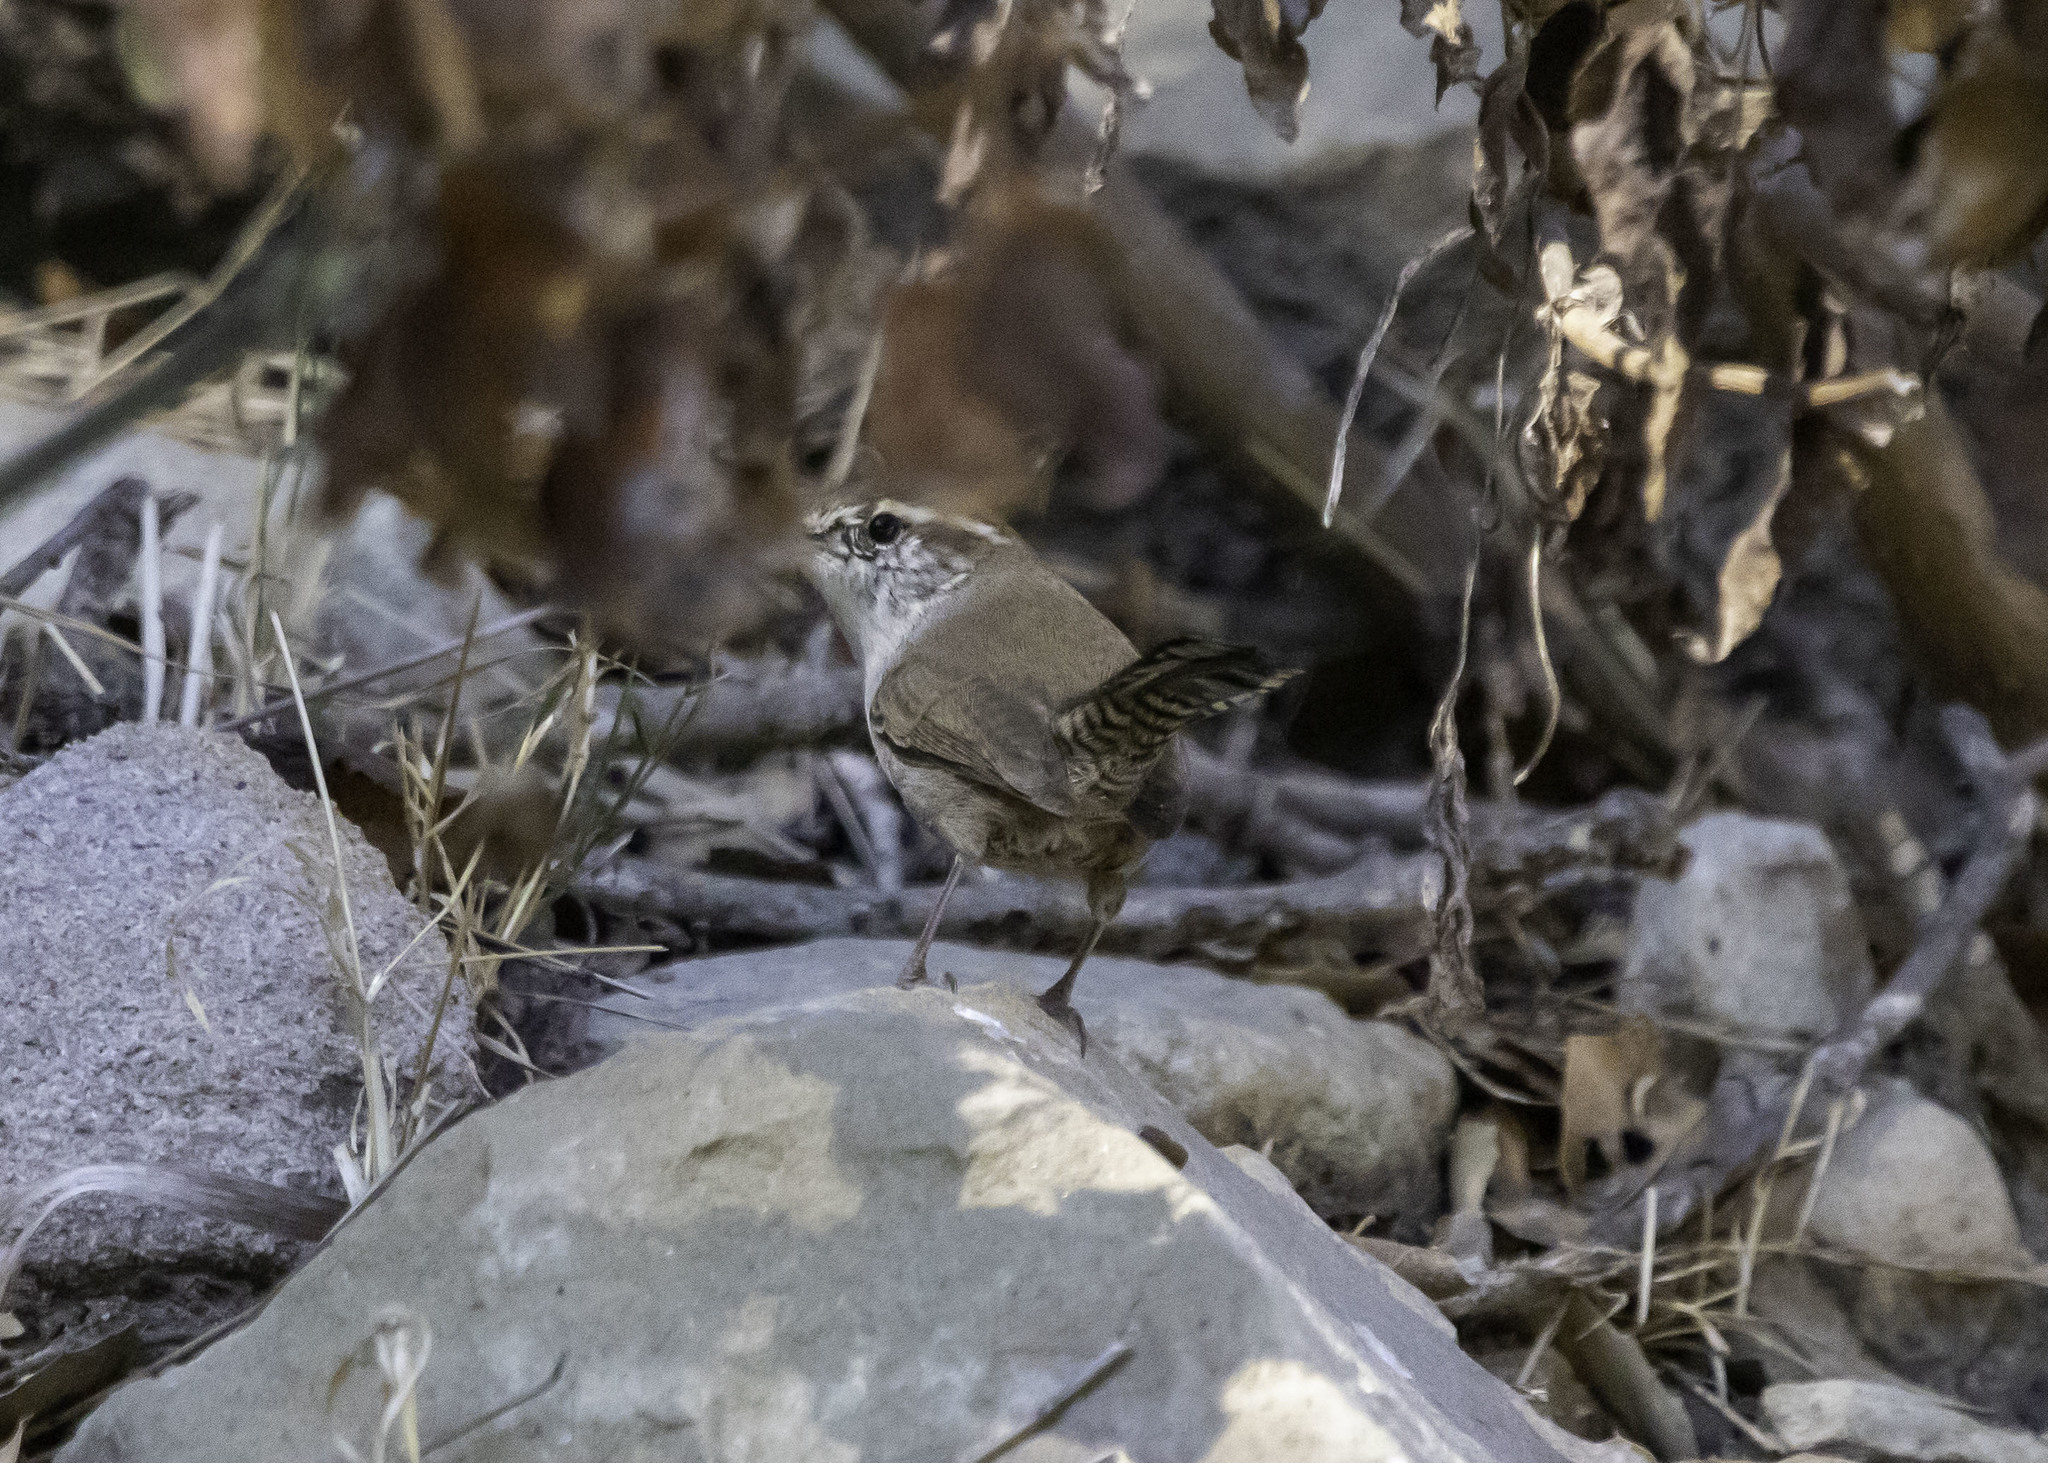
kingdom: Animalia
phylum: Chordata
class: Aves
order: Passeriformes
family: Troglodytidae
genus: Thryomanes
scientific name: Thryomanes bewickii
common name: Bewick's wren
